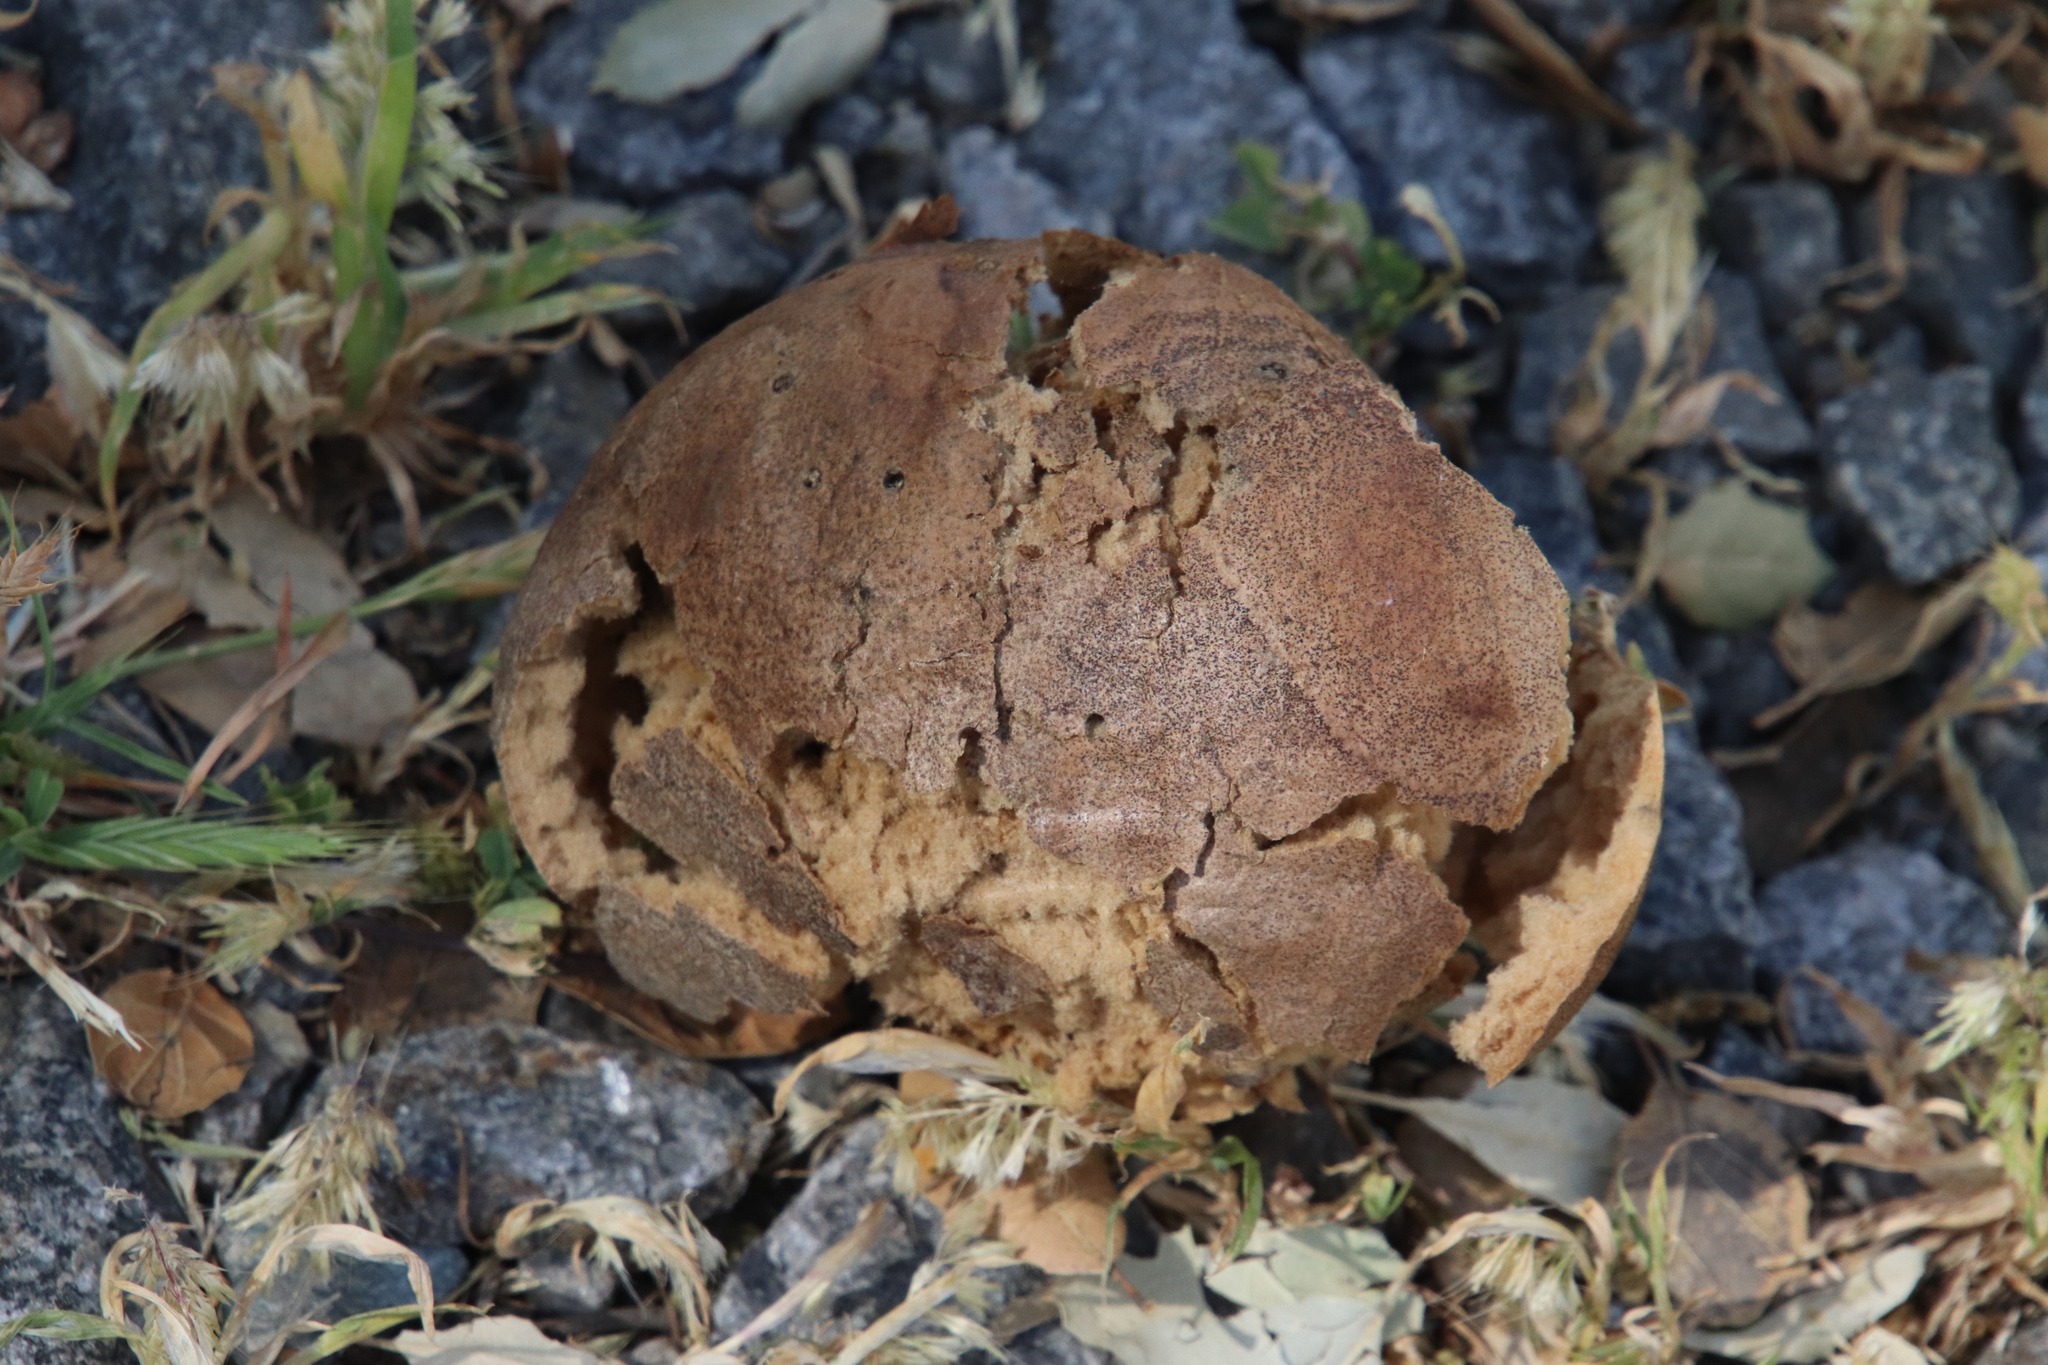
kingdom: Animalia
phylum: Arthropoda
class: Insecta
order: Hymenoptera
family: Cynipidae
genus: Andricus
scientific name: Andricus quercuscalifornicus
